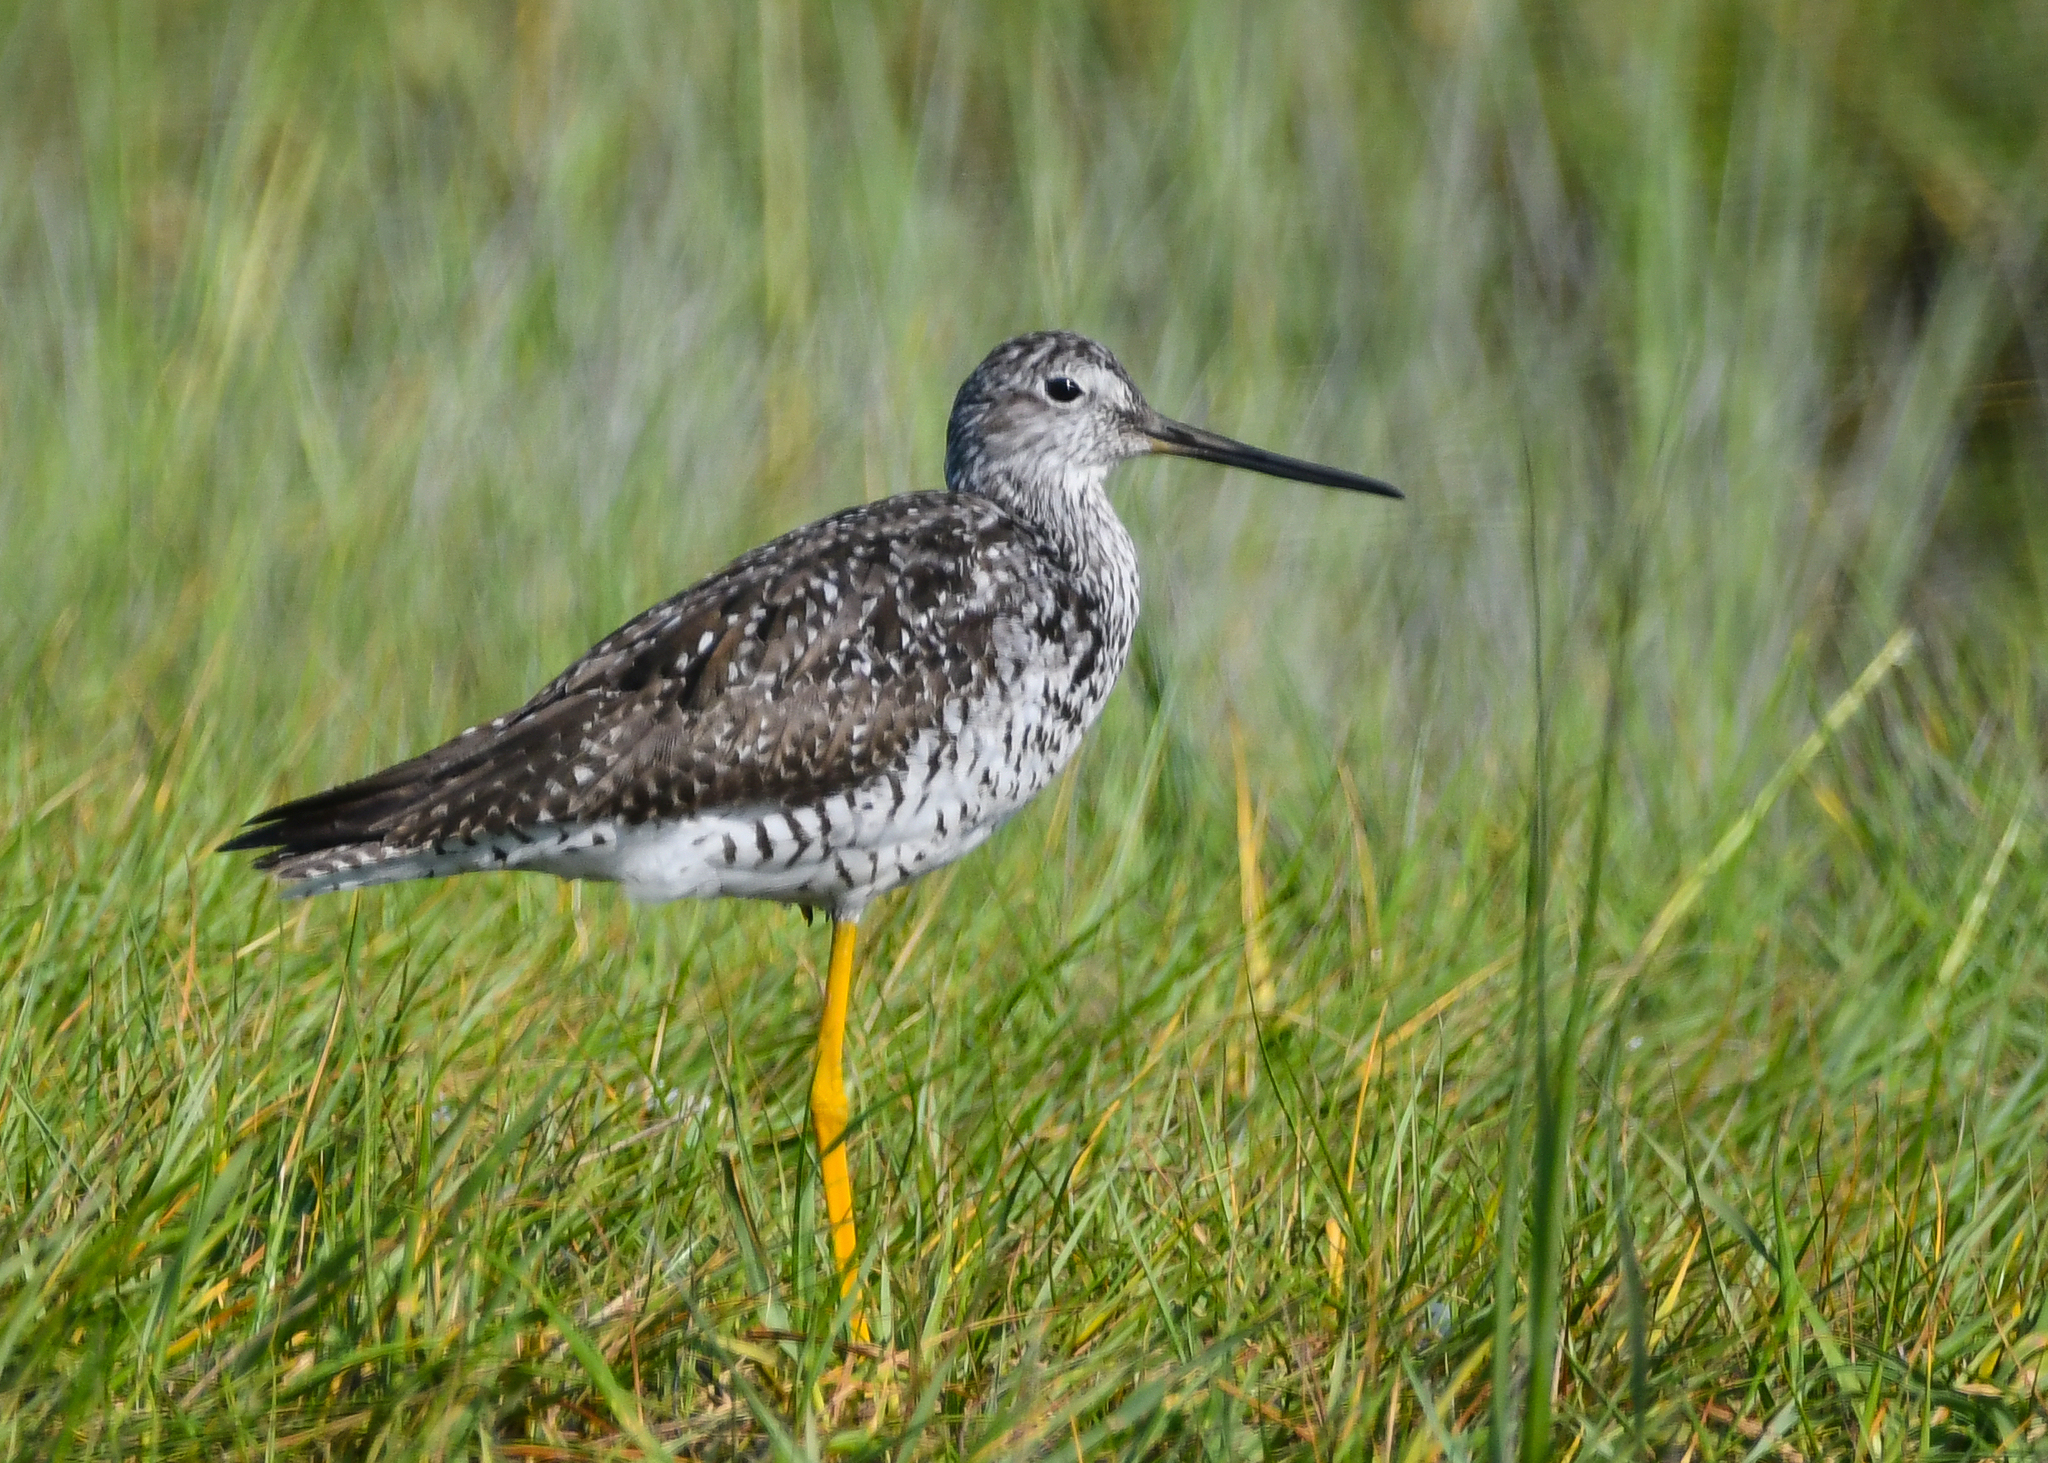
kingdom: Animalia
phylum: Chordata
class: Aves
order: Charadriiformes
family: Scolopacidae
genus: Tringa
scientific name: Tringa melanoleuca
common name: Greater yellowlegs
